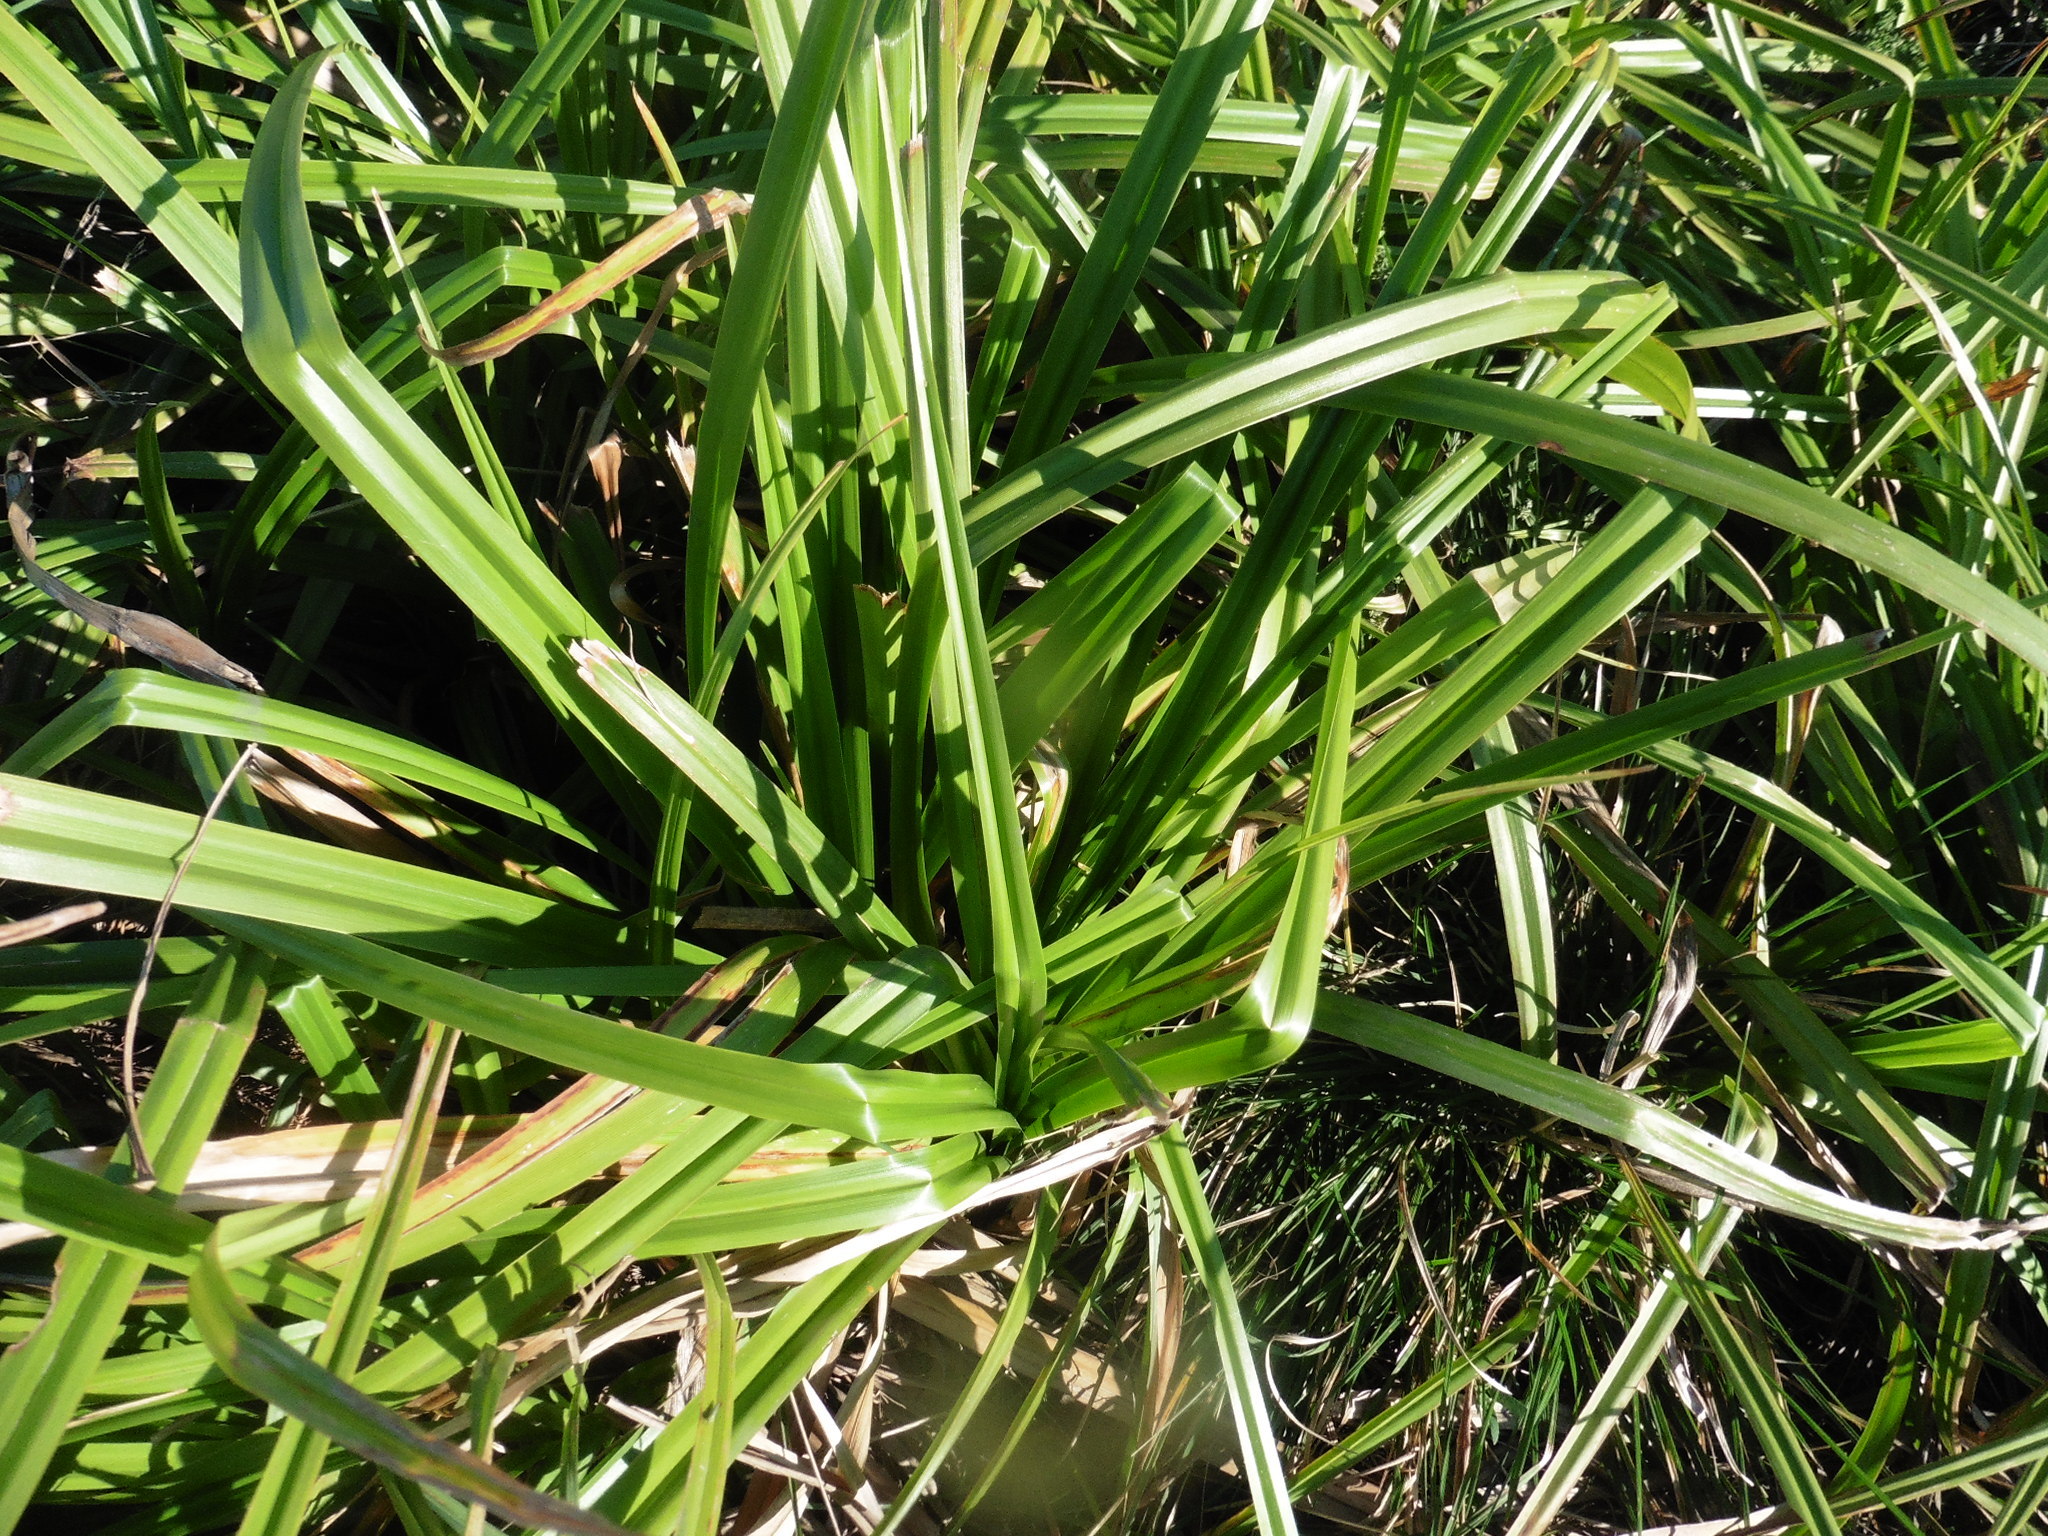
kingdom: Plantae
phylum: Tracheophyta
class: Liliopsida
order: Poales
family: Cyperaceae
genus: Scirpus
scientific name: Scirpus sylvaticus
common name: Wood club-rush
